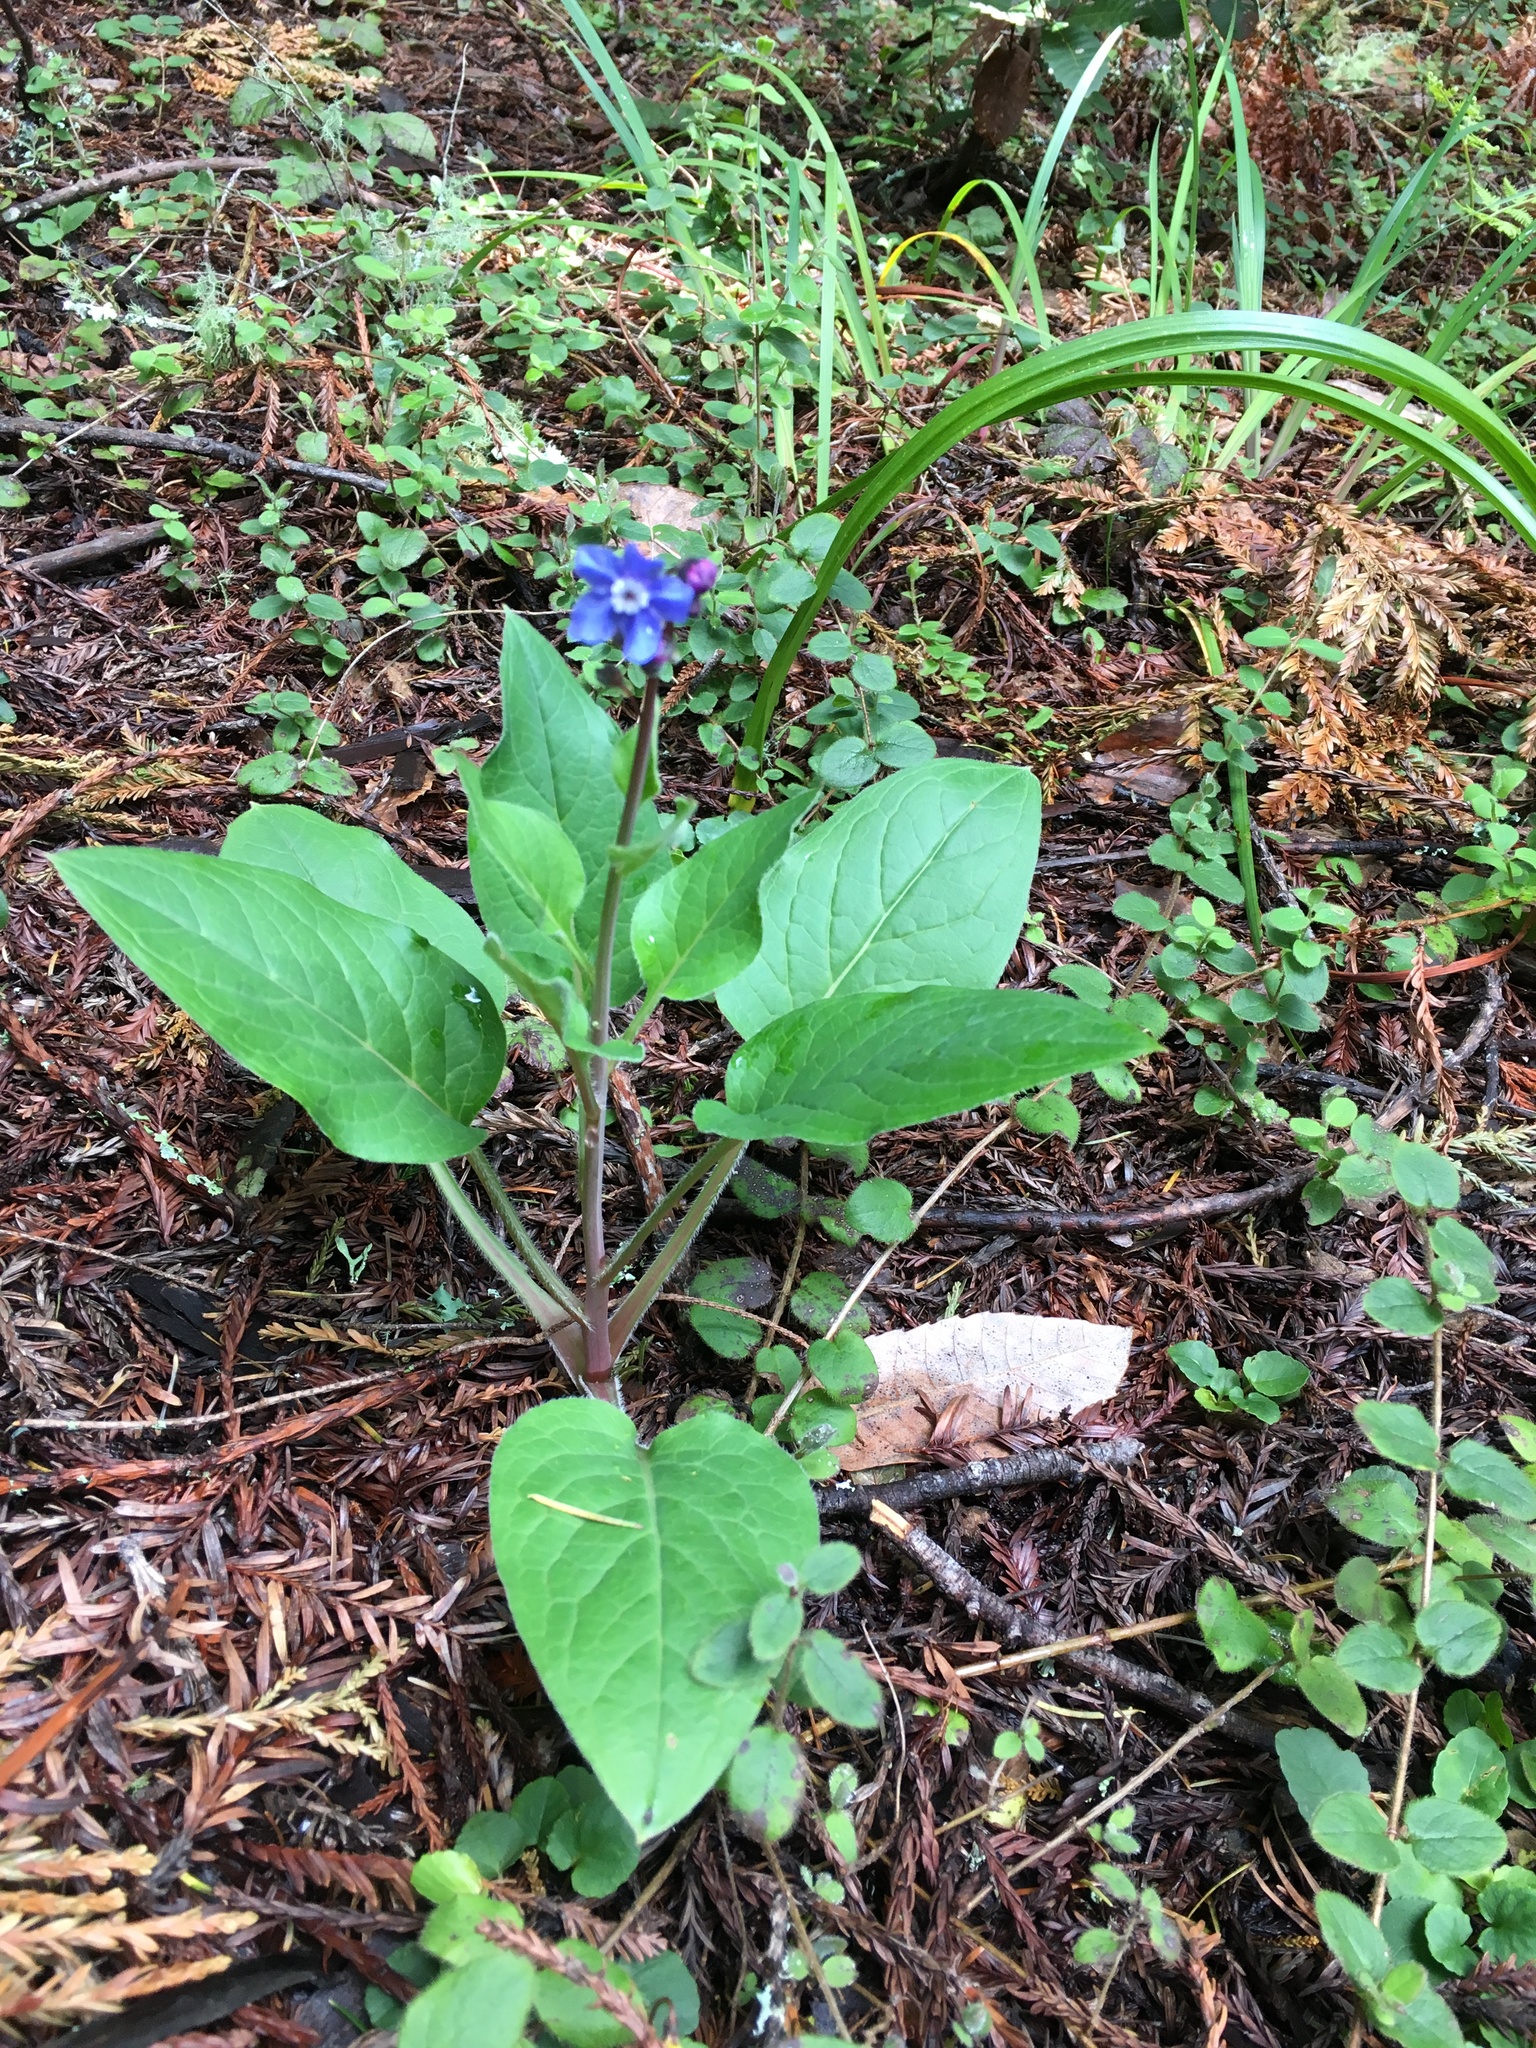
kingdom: Plantae
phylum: Tracheophyta
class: Magnoliopsida
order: Boraginales
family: Boraginaceae
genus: Adelinia
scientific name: Adelinia grande
